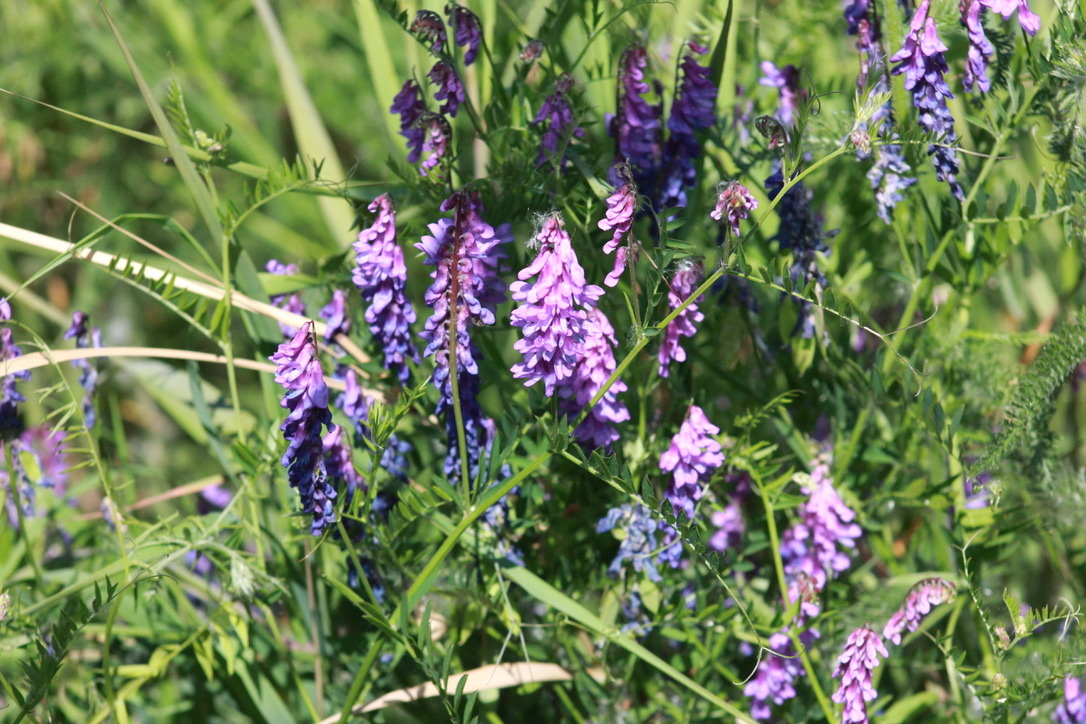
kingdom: Plantae
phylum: Tracheophyta
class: Magnoliopsida
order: Fabales
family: Fabaceae
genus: Vicia
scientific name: Vicia cracca
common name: Bird vetch
